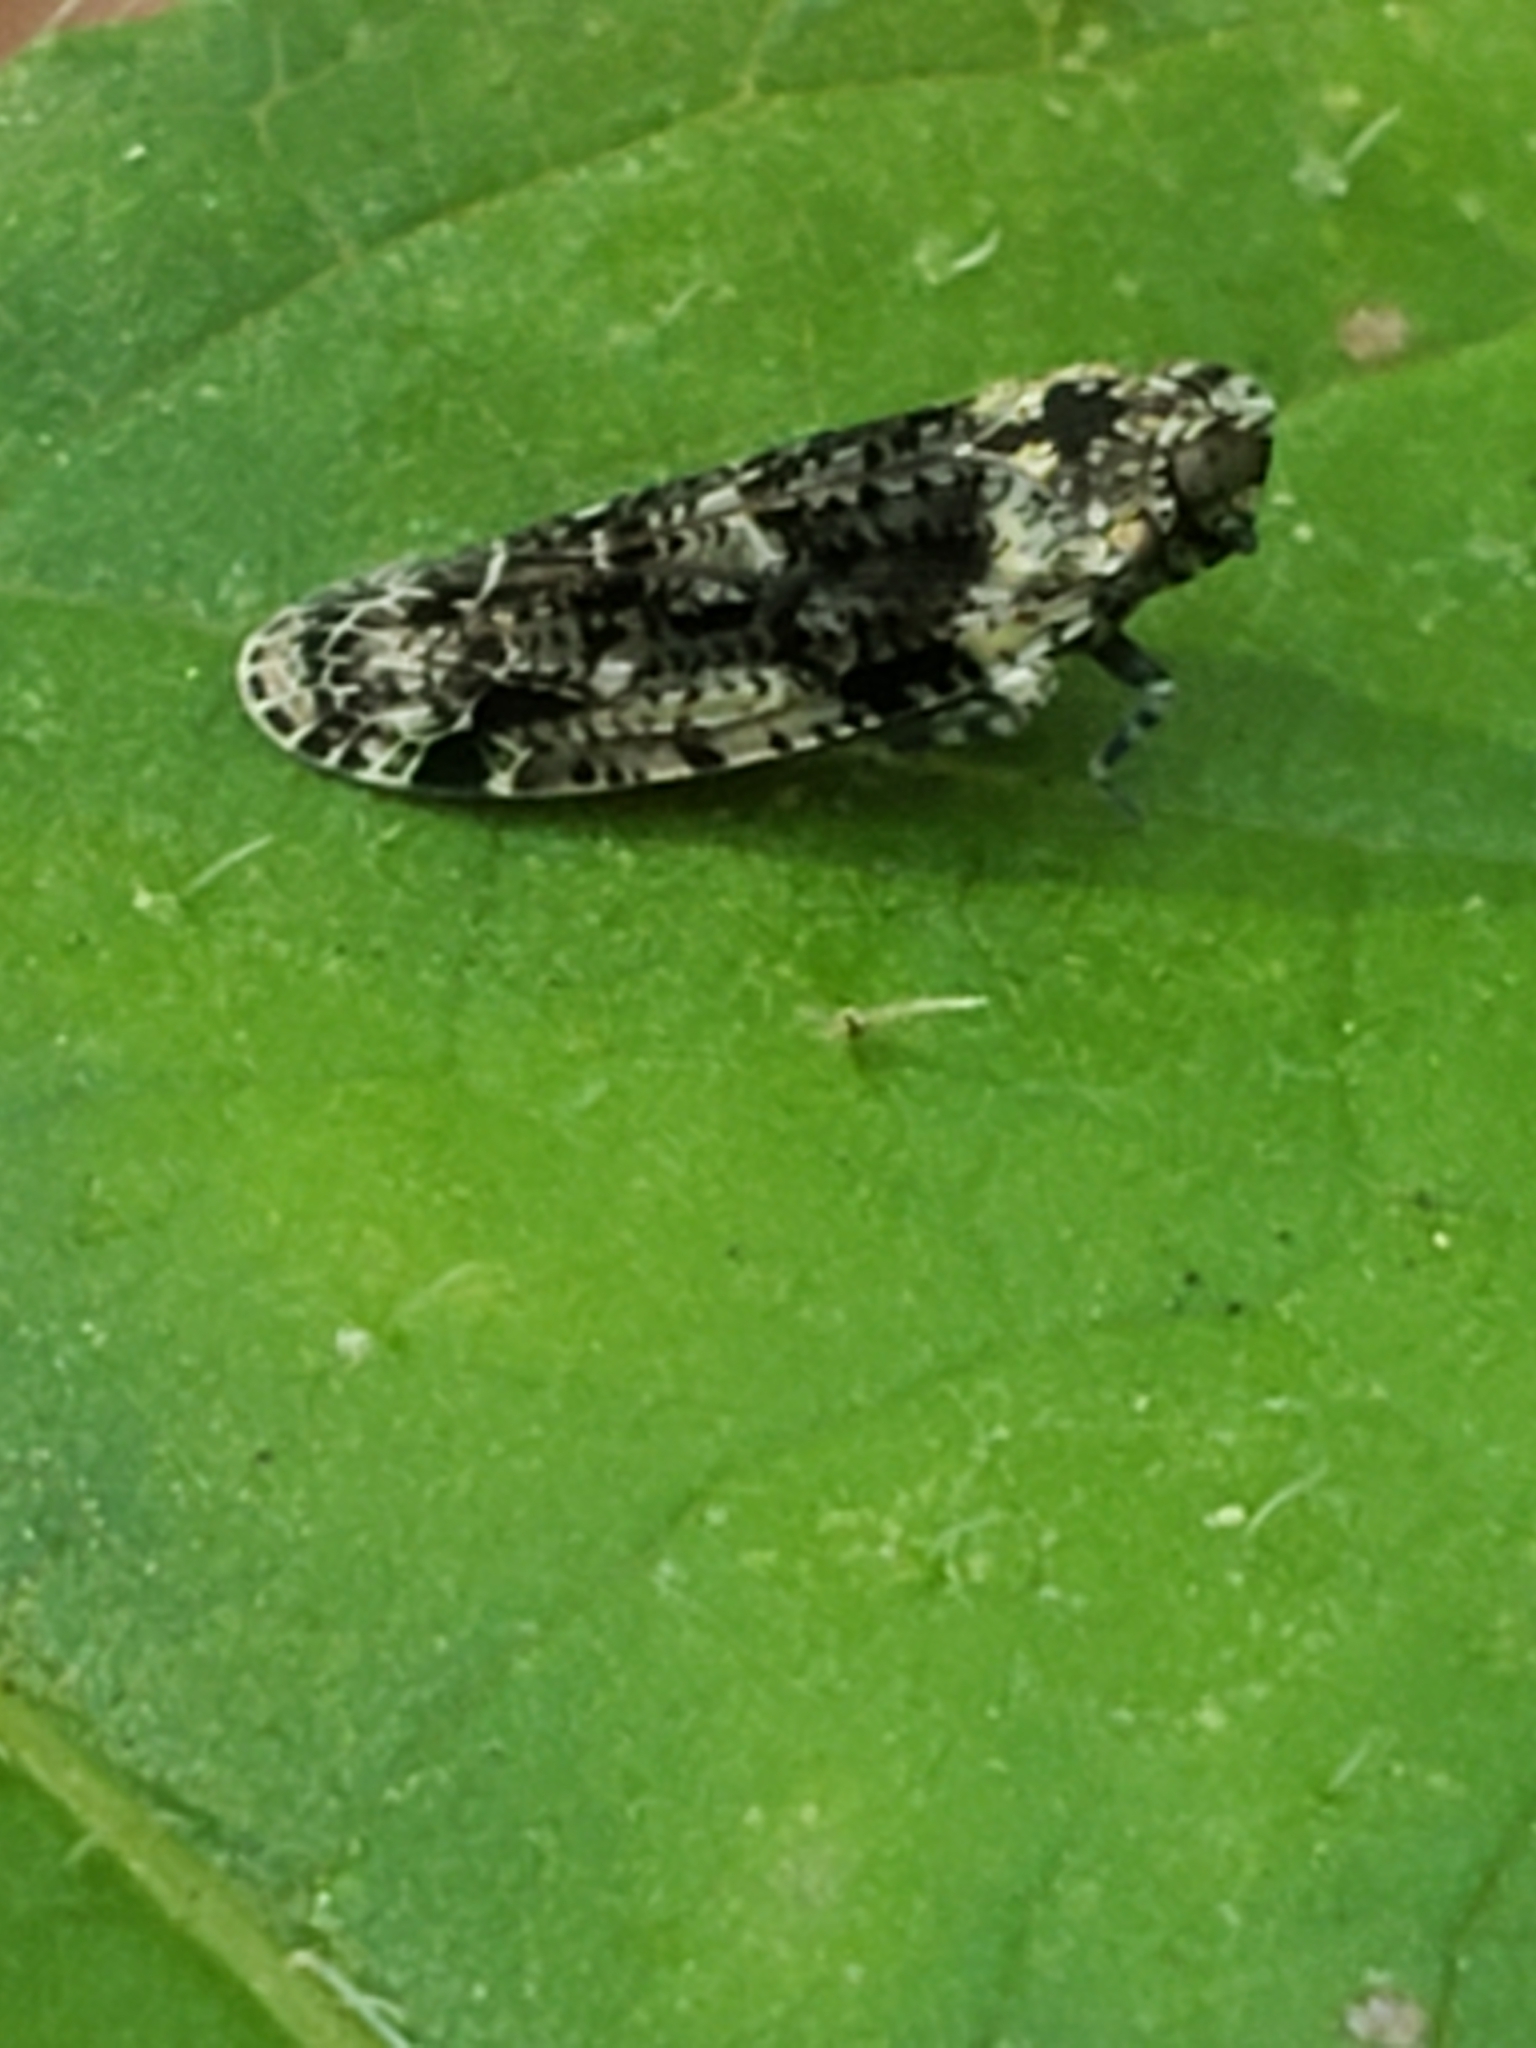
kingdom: Animalia
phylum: Arthropoda
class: Insecta
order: Hemiptera
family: Achilidae
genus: Catonia
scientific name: Catonia nava
